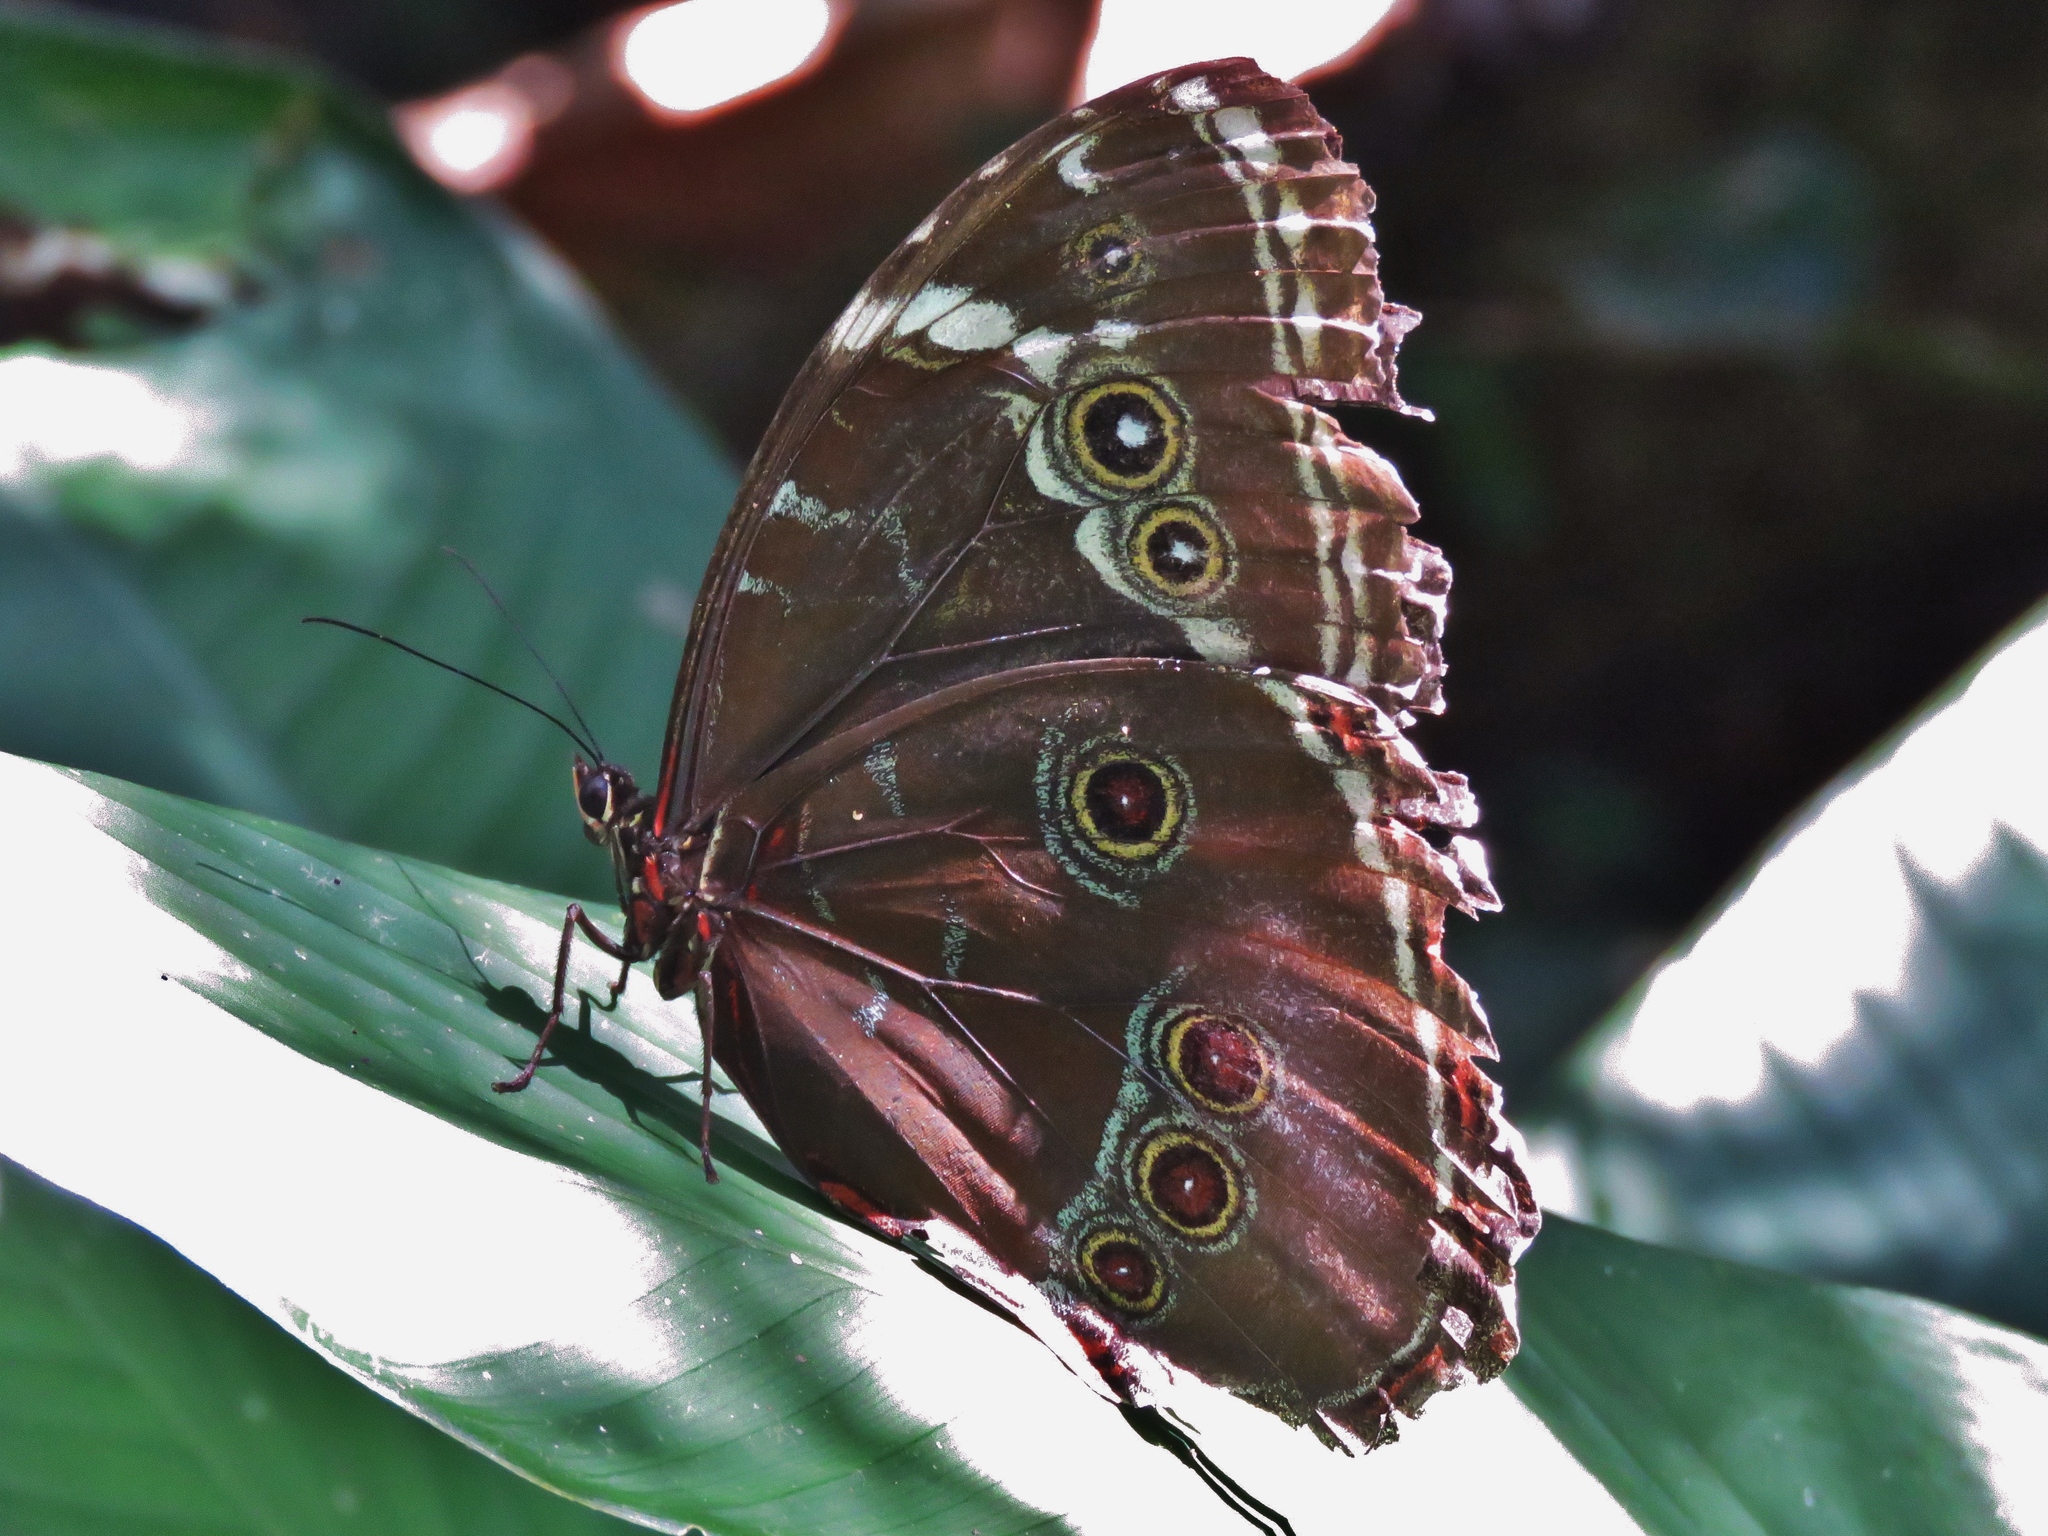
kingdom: Animalia
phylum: Arthropoda
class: Insecta
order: Lepidoptera
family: Nymphalidae
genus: Morpho
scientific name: Morpho helenor
